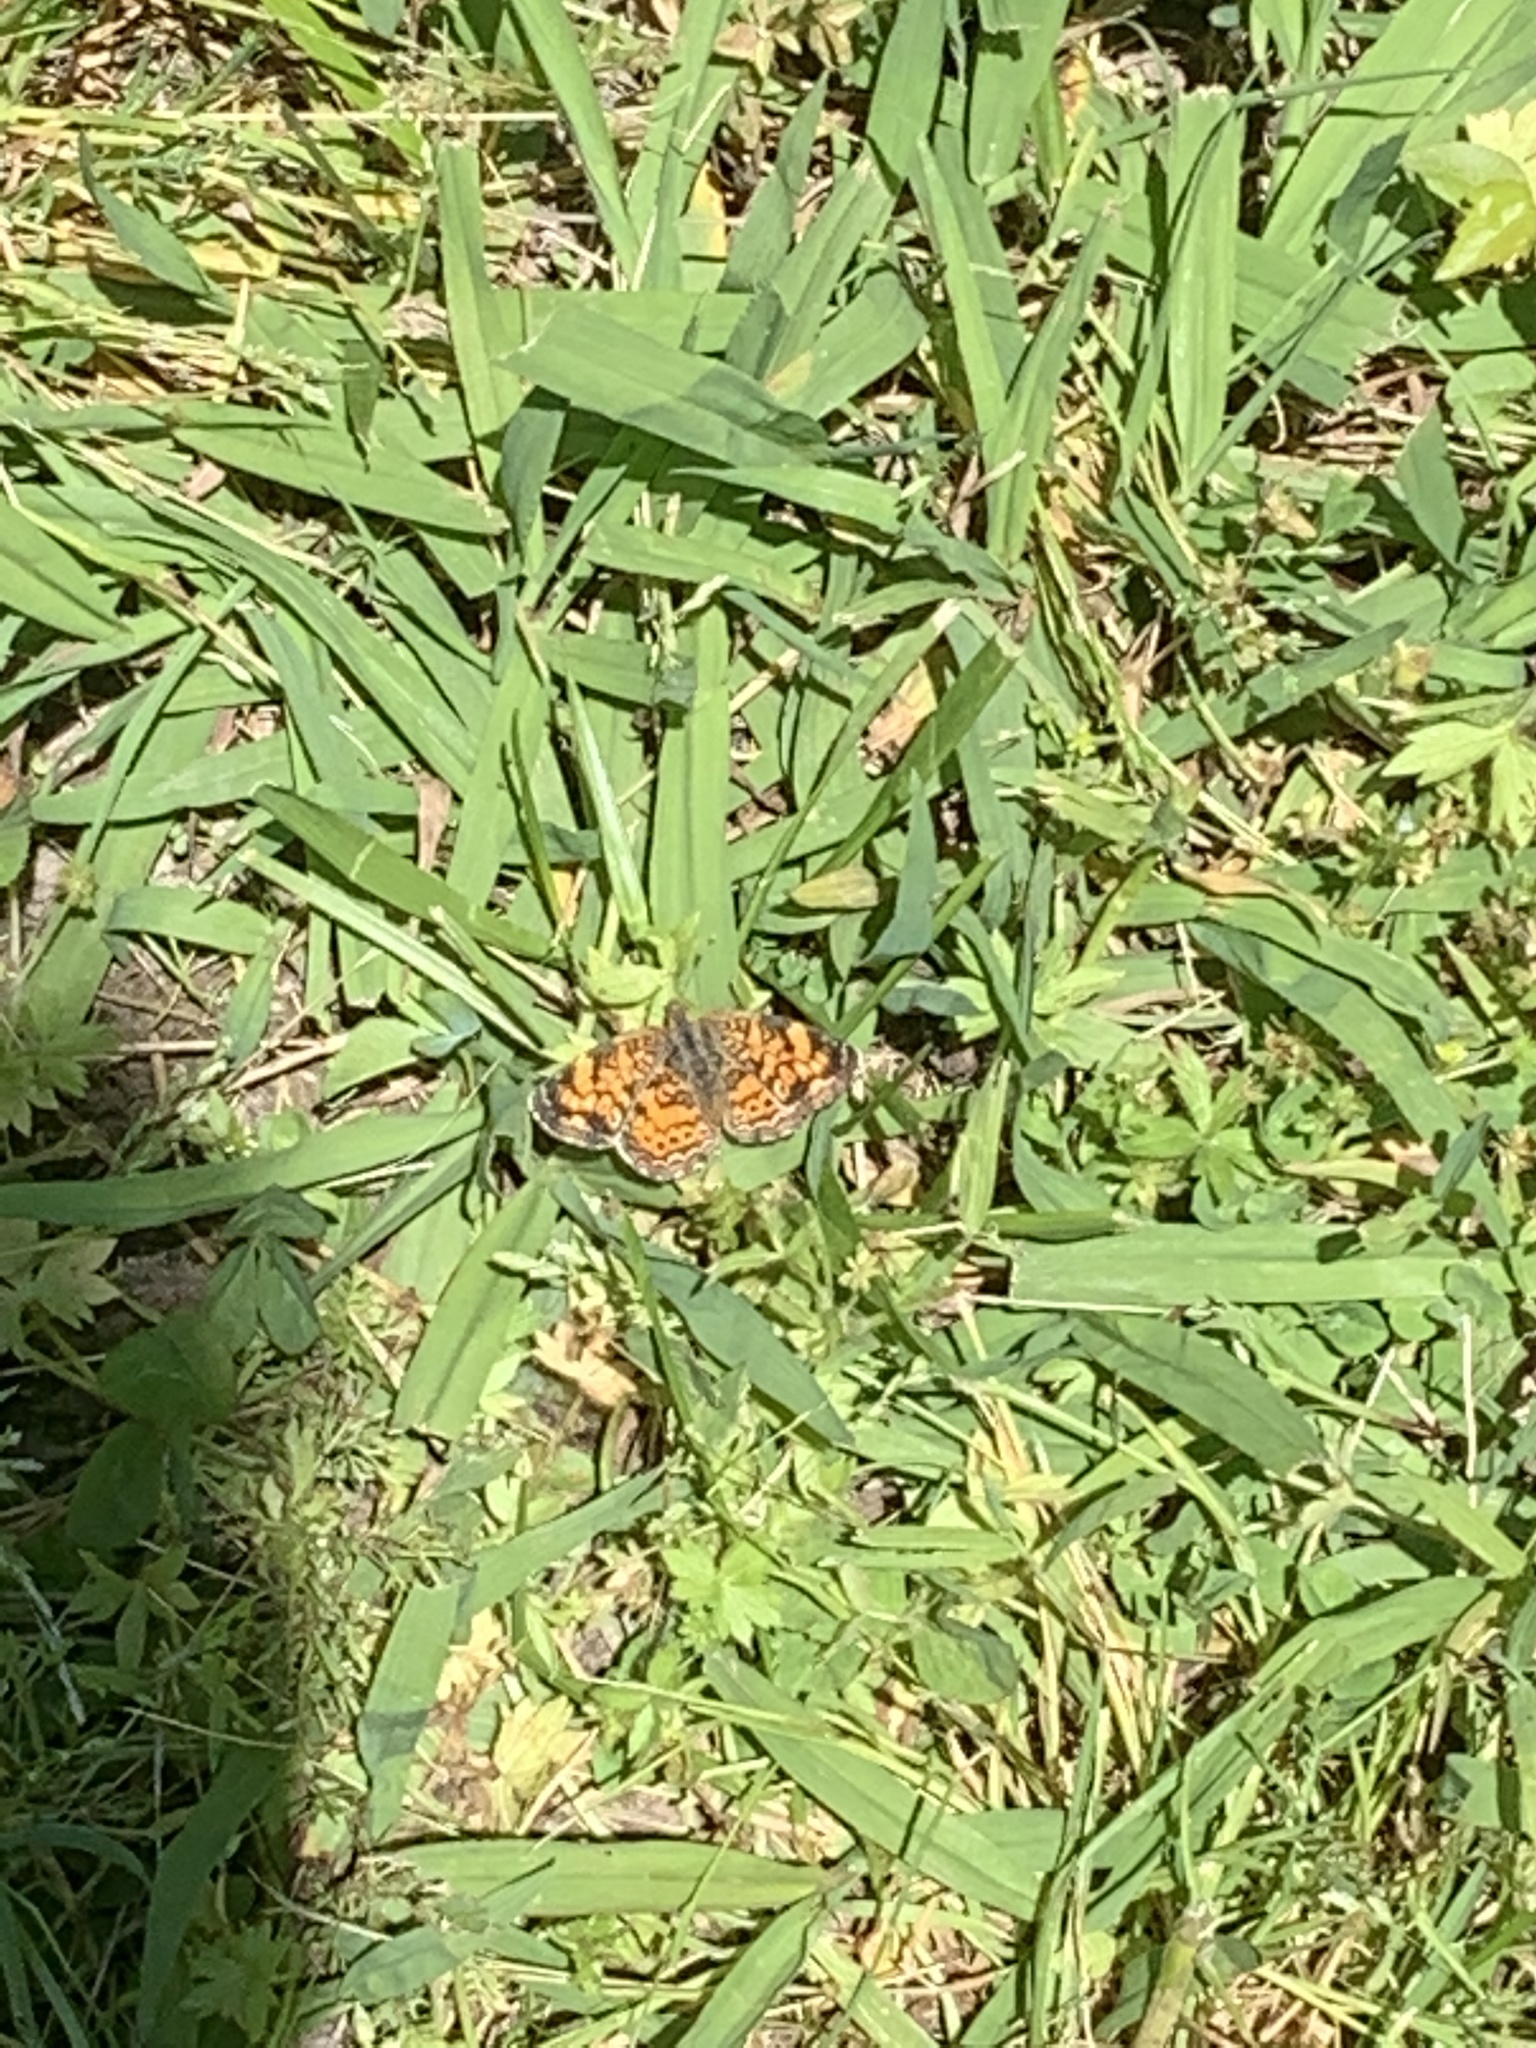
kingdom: Animalia
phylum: Arthropoda
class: Insecta
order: Lepidoptera
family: Nymphalidae
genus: Phyciodes
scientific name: Phyciodes tharos
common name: Pearl crescent
